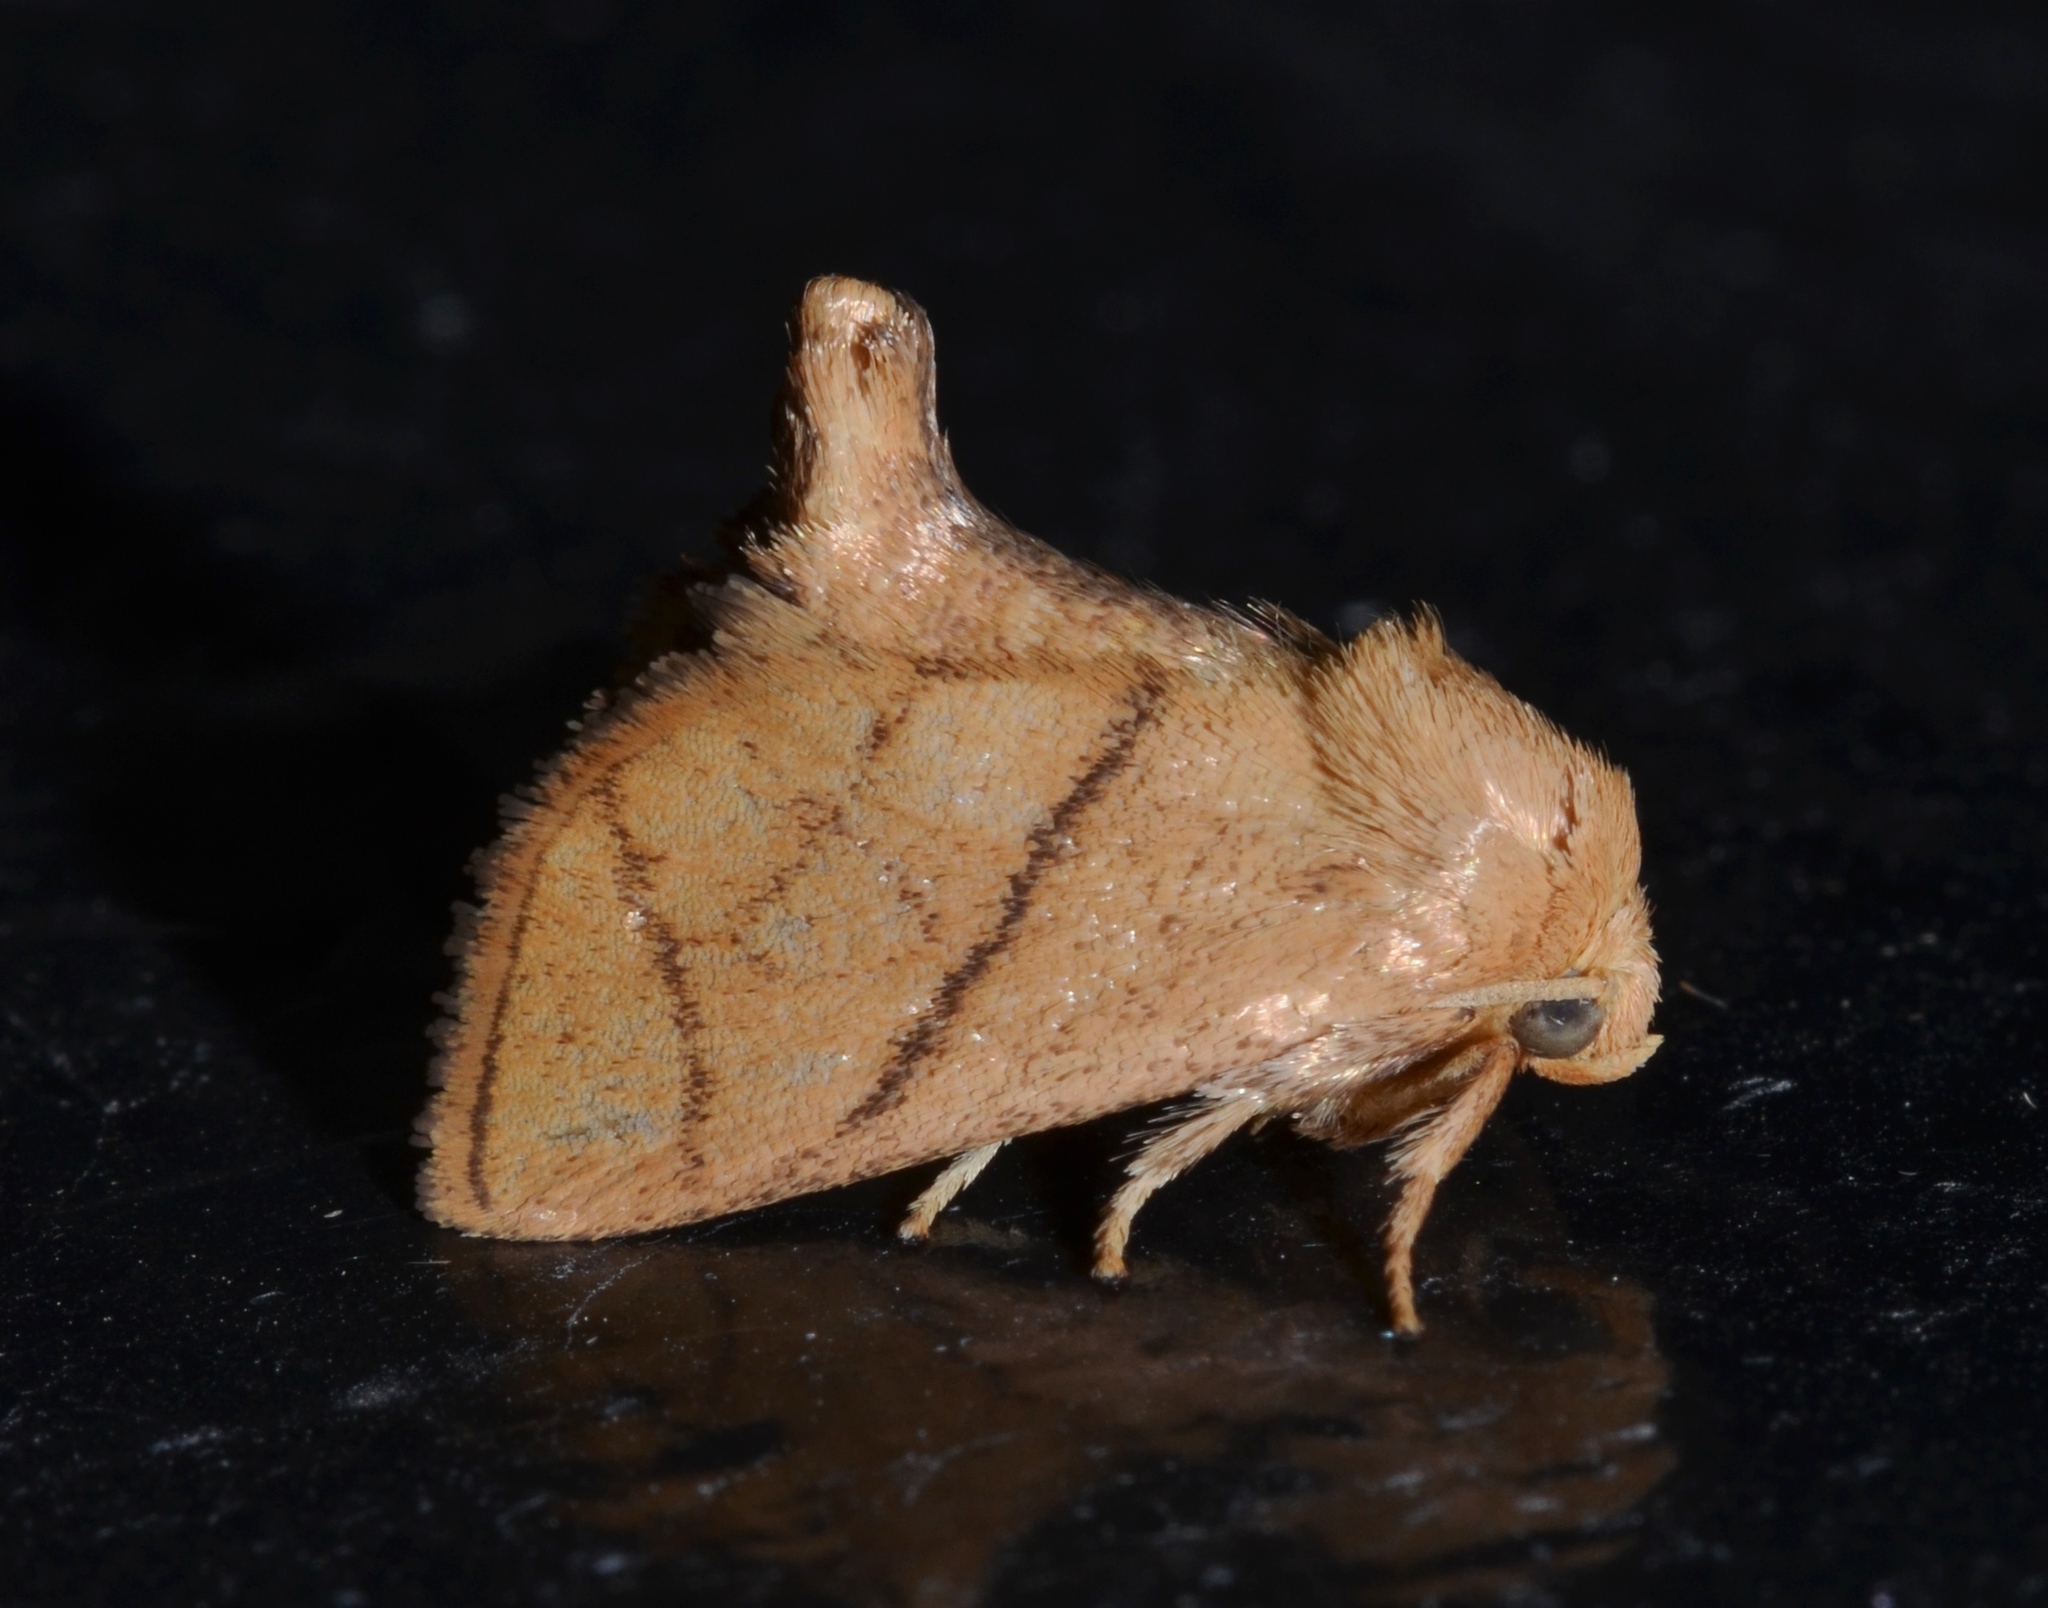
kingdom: Animalia
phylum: Arthropoda
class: Insecta
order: Lepidoptera
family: Limacodidae
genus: Apoda
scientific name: Apoda y-inversa
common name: Yellow-collared slug moth
